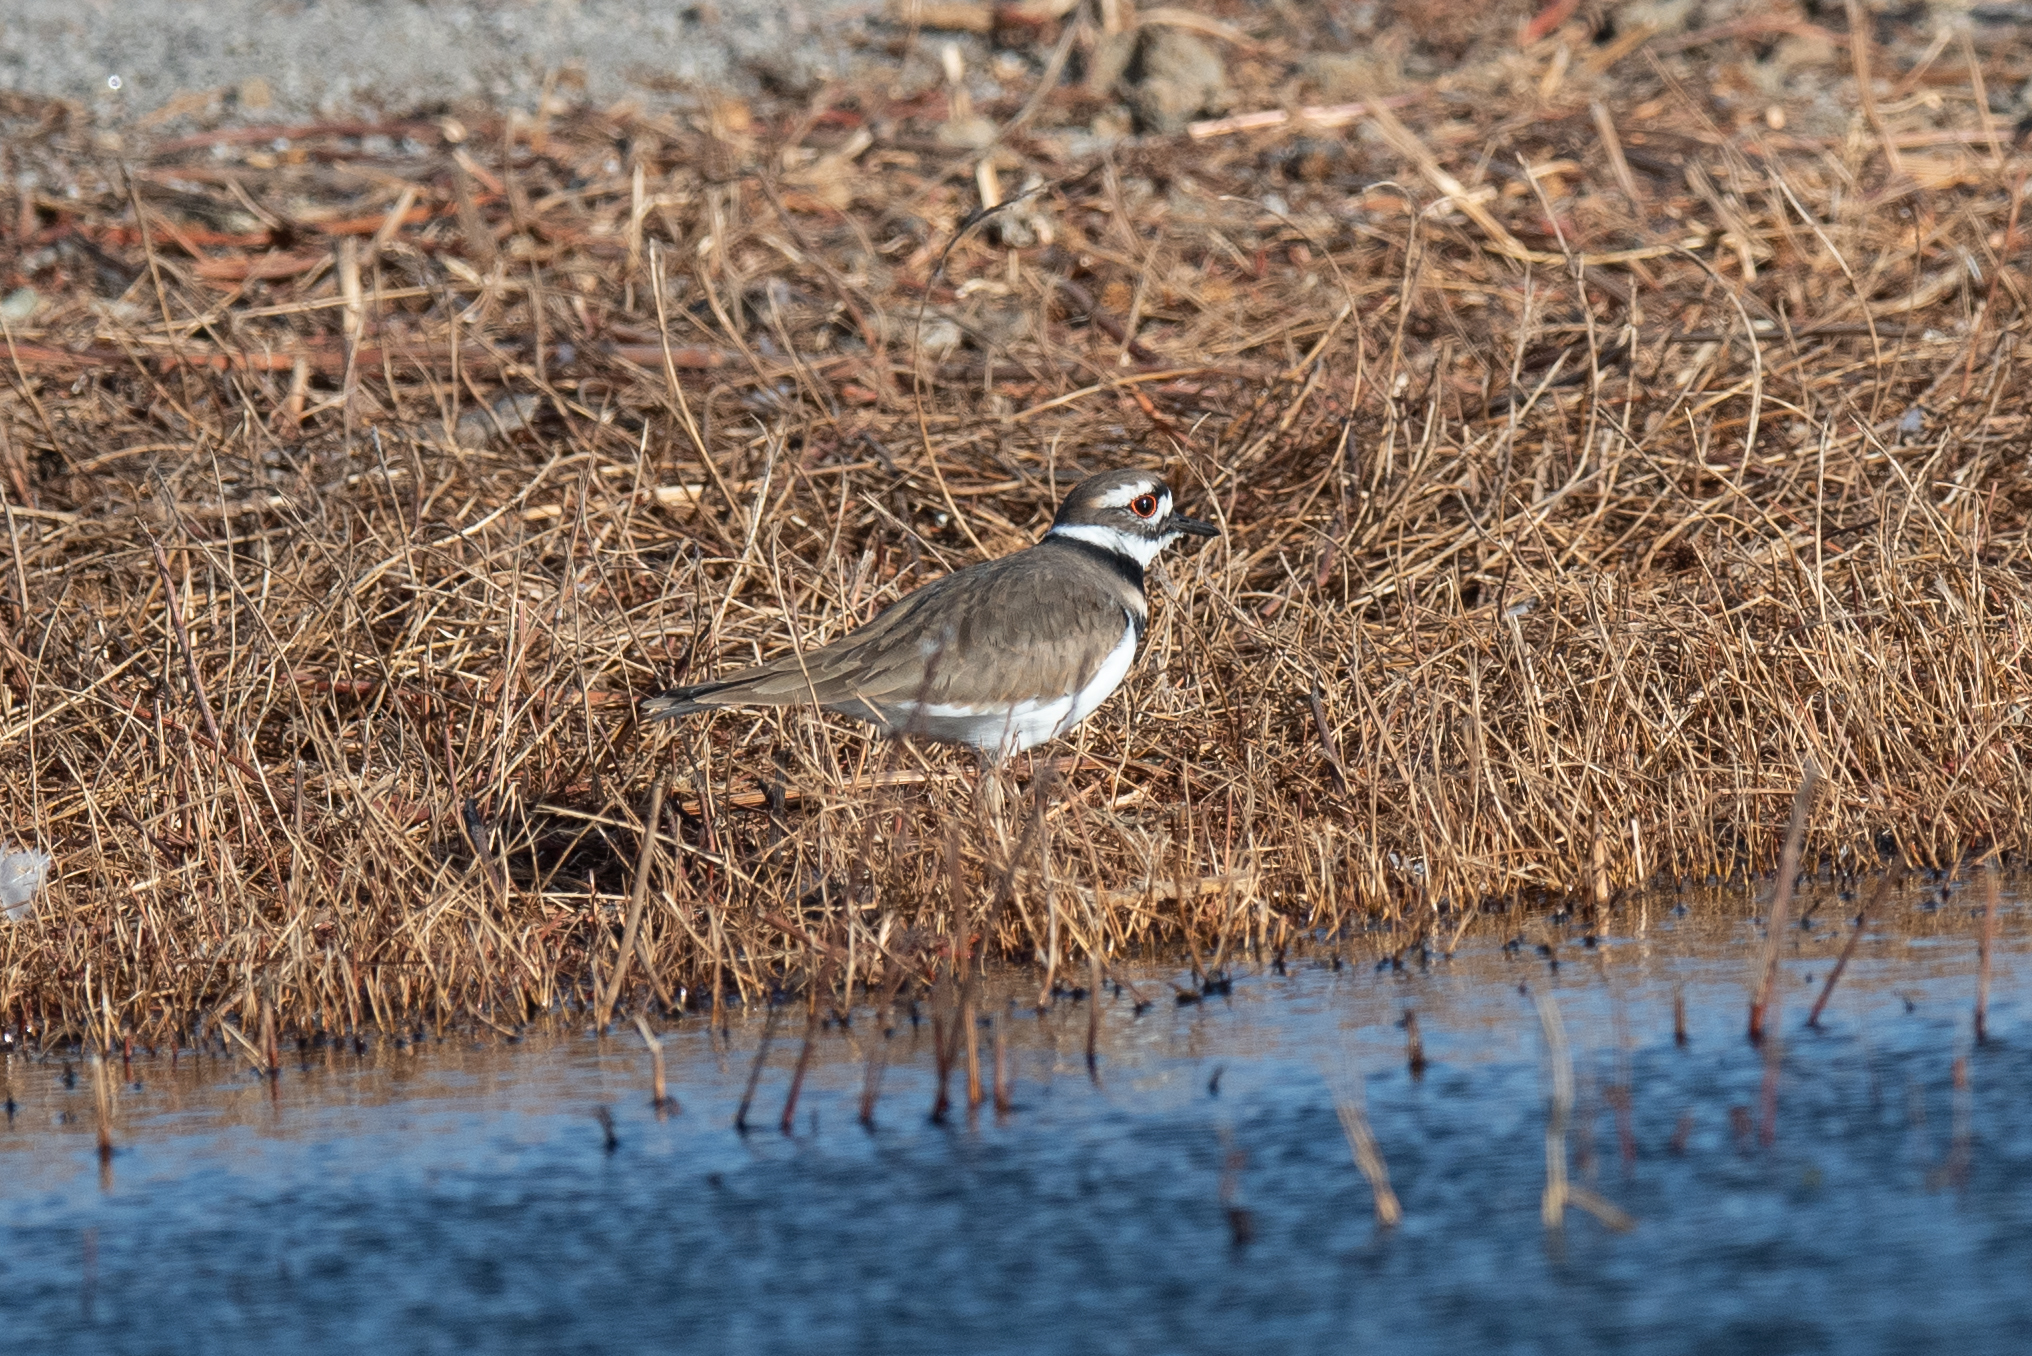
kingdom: Animalia
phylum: Chordata
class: Aves
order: Charadriiformes
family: Charadriidae
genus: Charadrius
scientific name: Charadrius vociferus
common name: Killdeer
